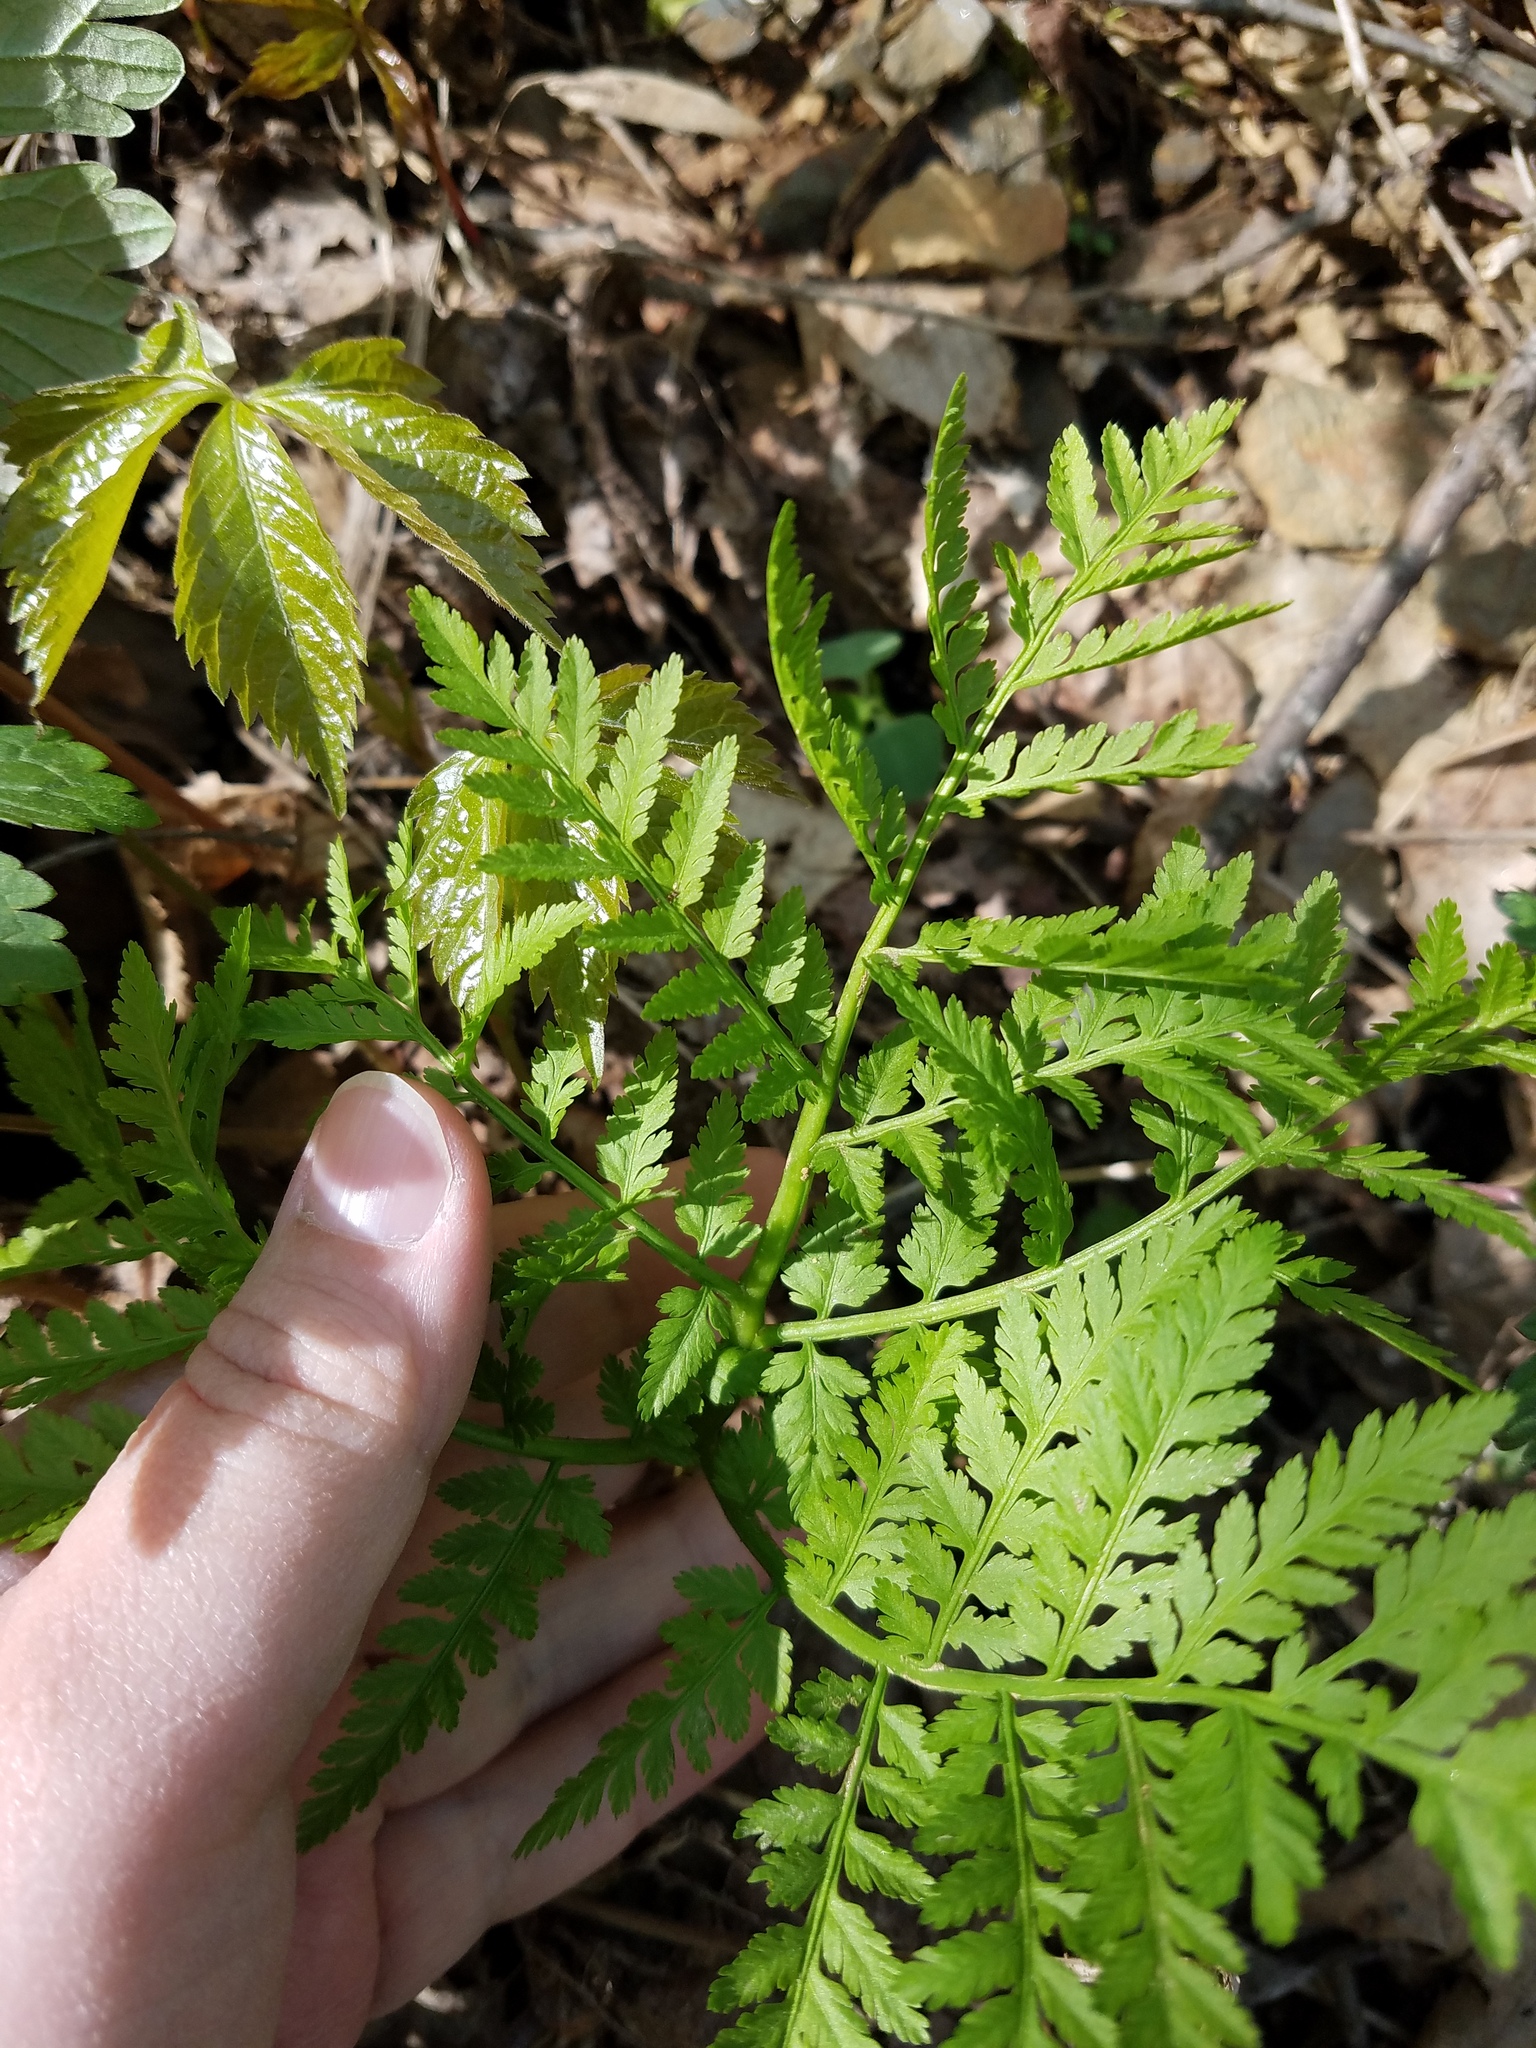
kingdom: Plantae
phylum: Tracheophyta
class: Polypodiopsida
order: Ophioglossales
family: Ophioglossaceae
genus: Botrypus
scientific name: Botrypus virginianus
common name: Common grapefern
